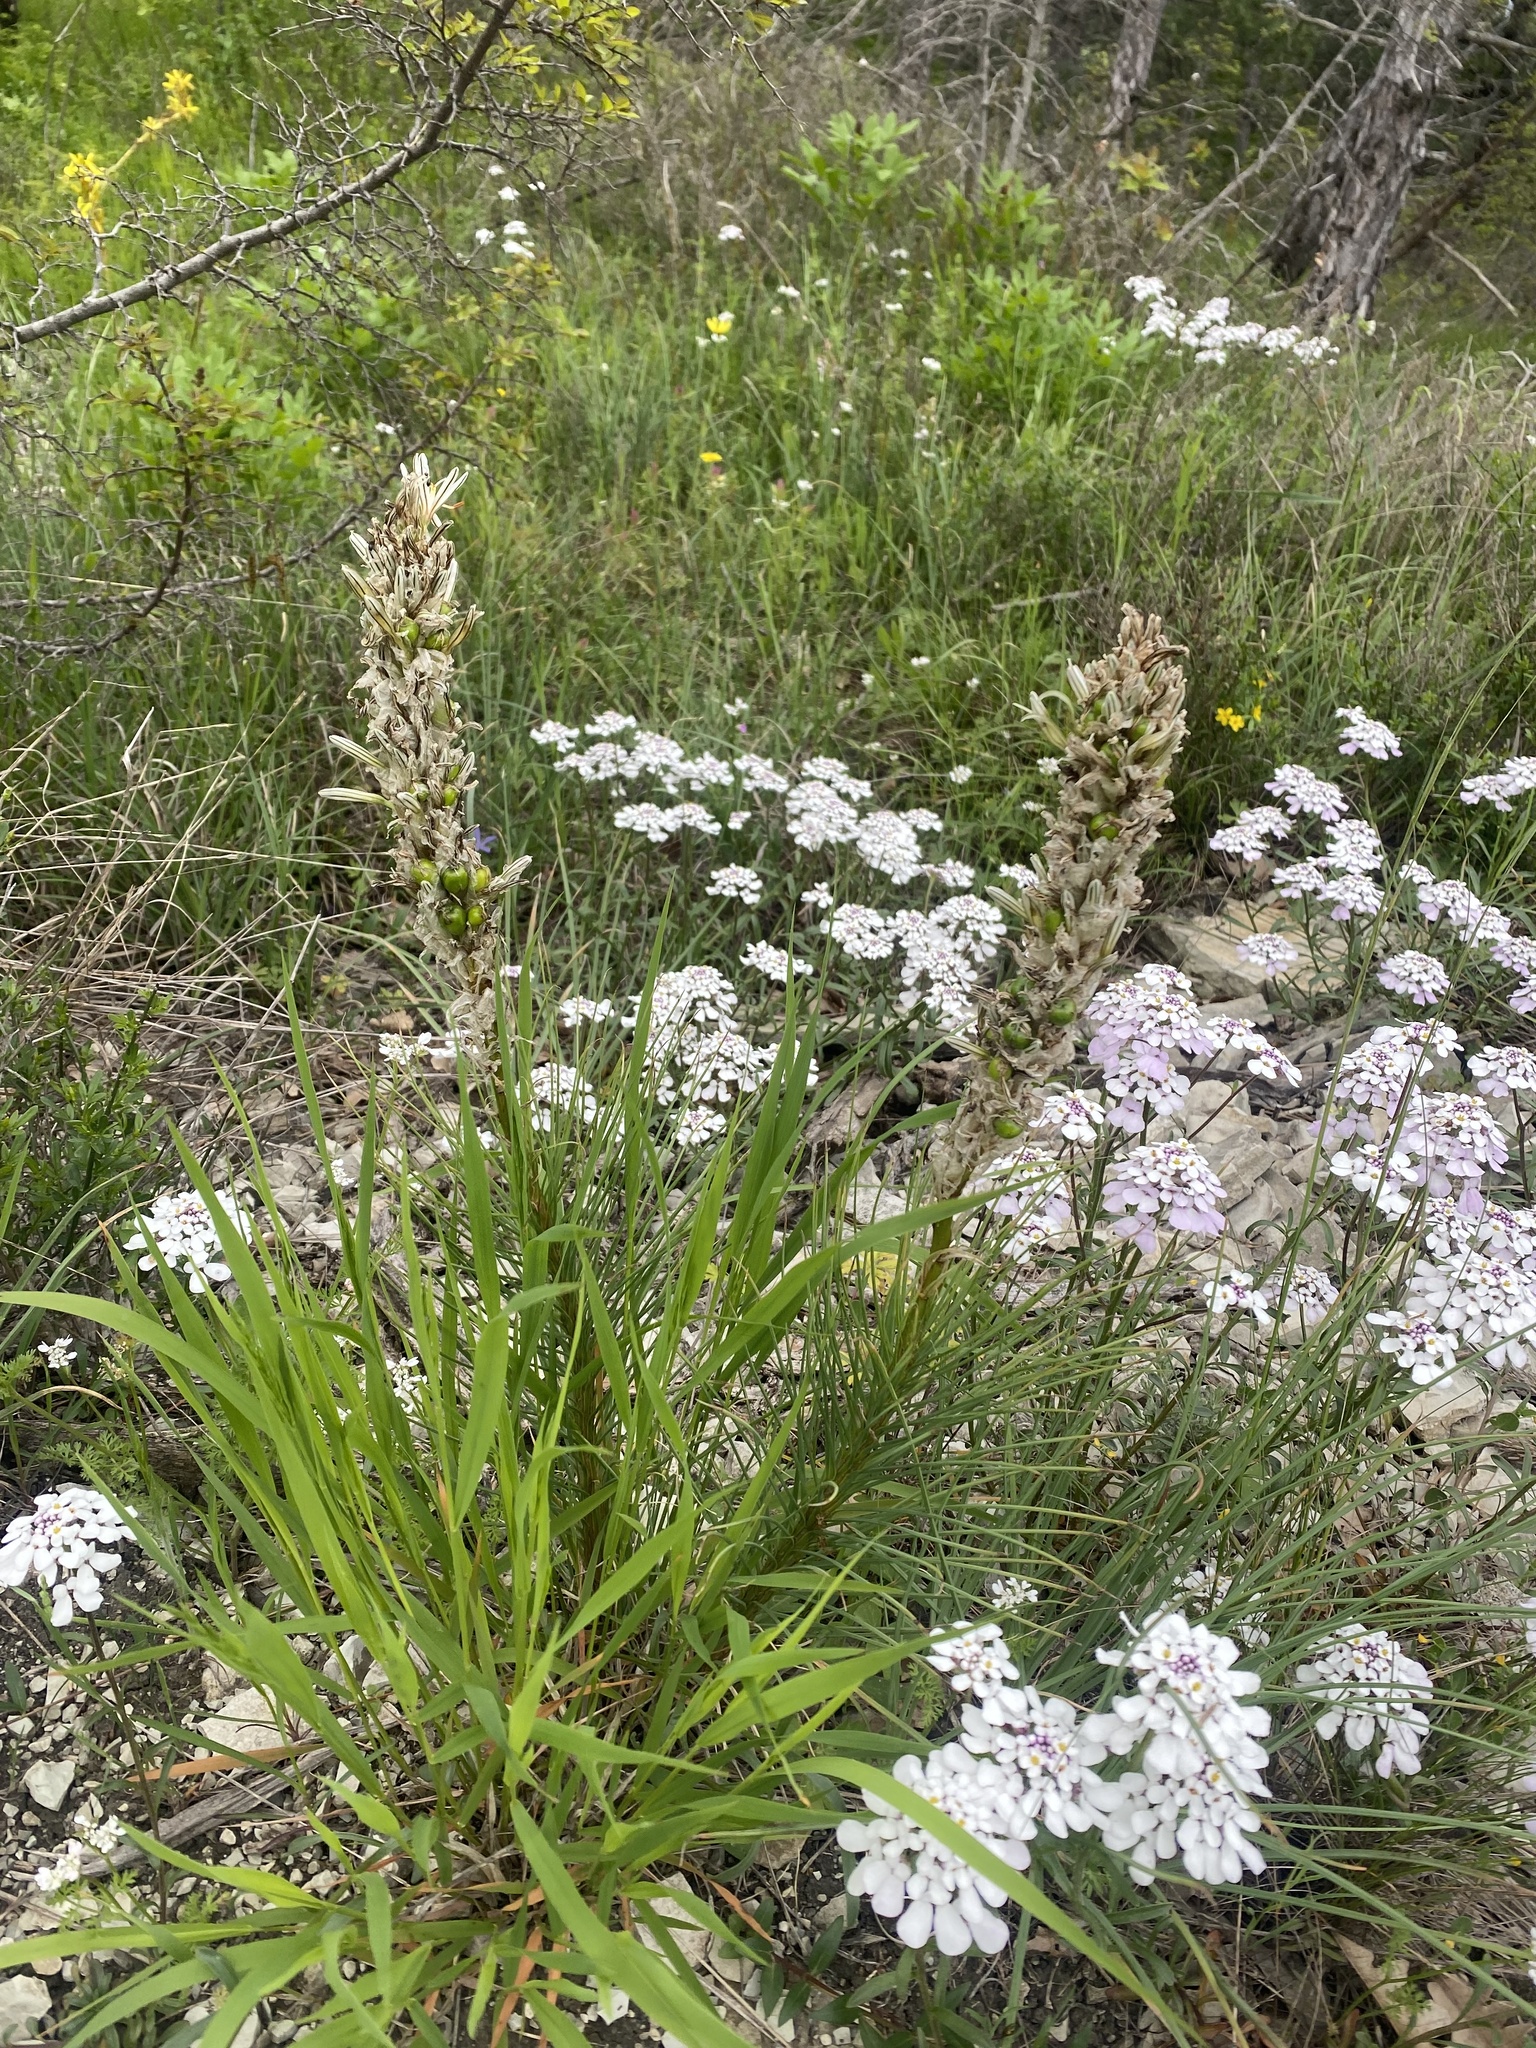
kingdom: Plantae
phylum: Tracheophyta
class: Liliopsida
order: Asparagales
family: Asphodelaceae
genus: Asphodeline
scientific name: Asphodeline taurica
